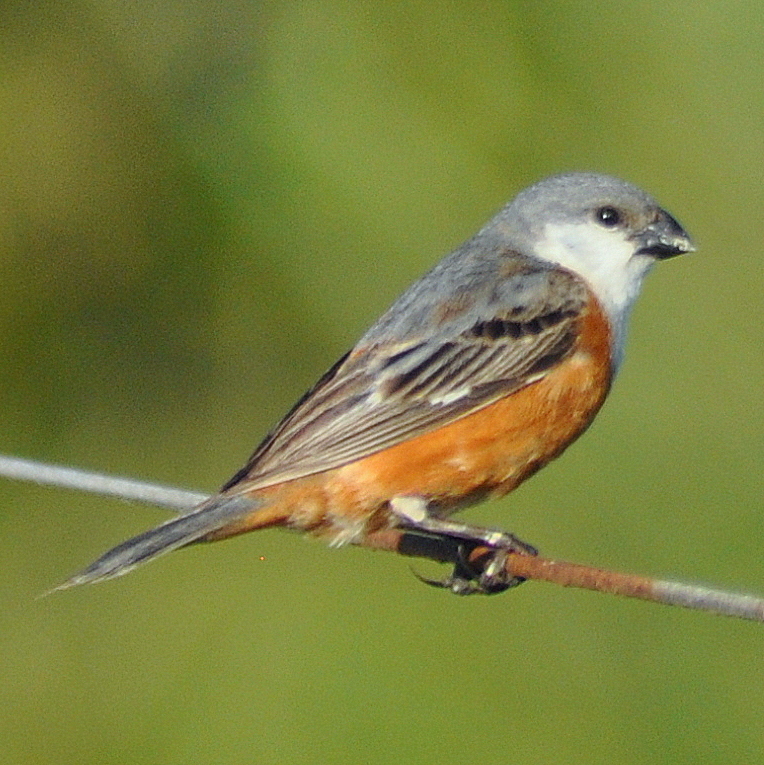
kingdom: Animalia
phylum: Chordata
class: Aves
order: Passeriformes
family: Thraupidae
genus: Sporophila
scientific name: Sporophila palustris
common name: Marsh seedeater
